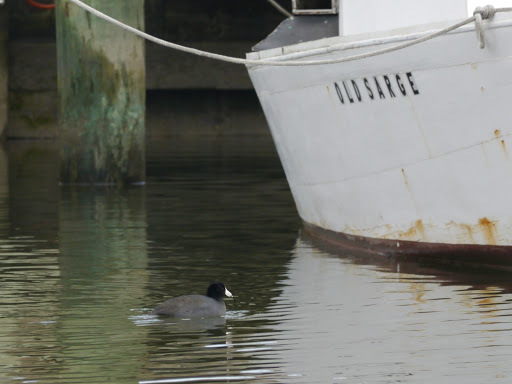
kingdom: Animalia
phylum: Chordata
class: Aves
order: Gruiformes
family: Rallidae
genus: Fulica
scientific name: Fulica americana
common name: American coot
